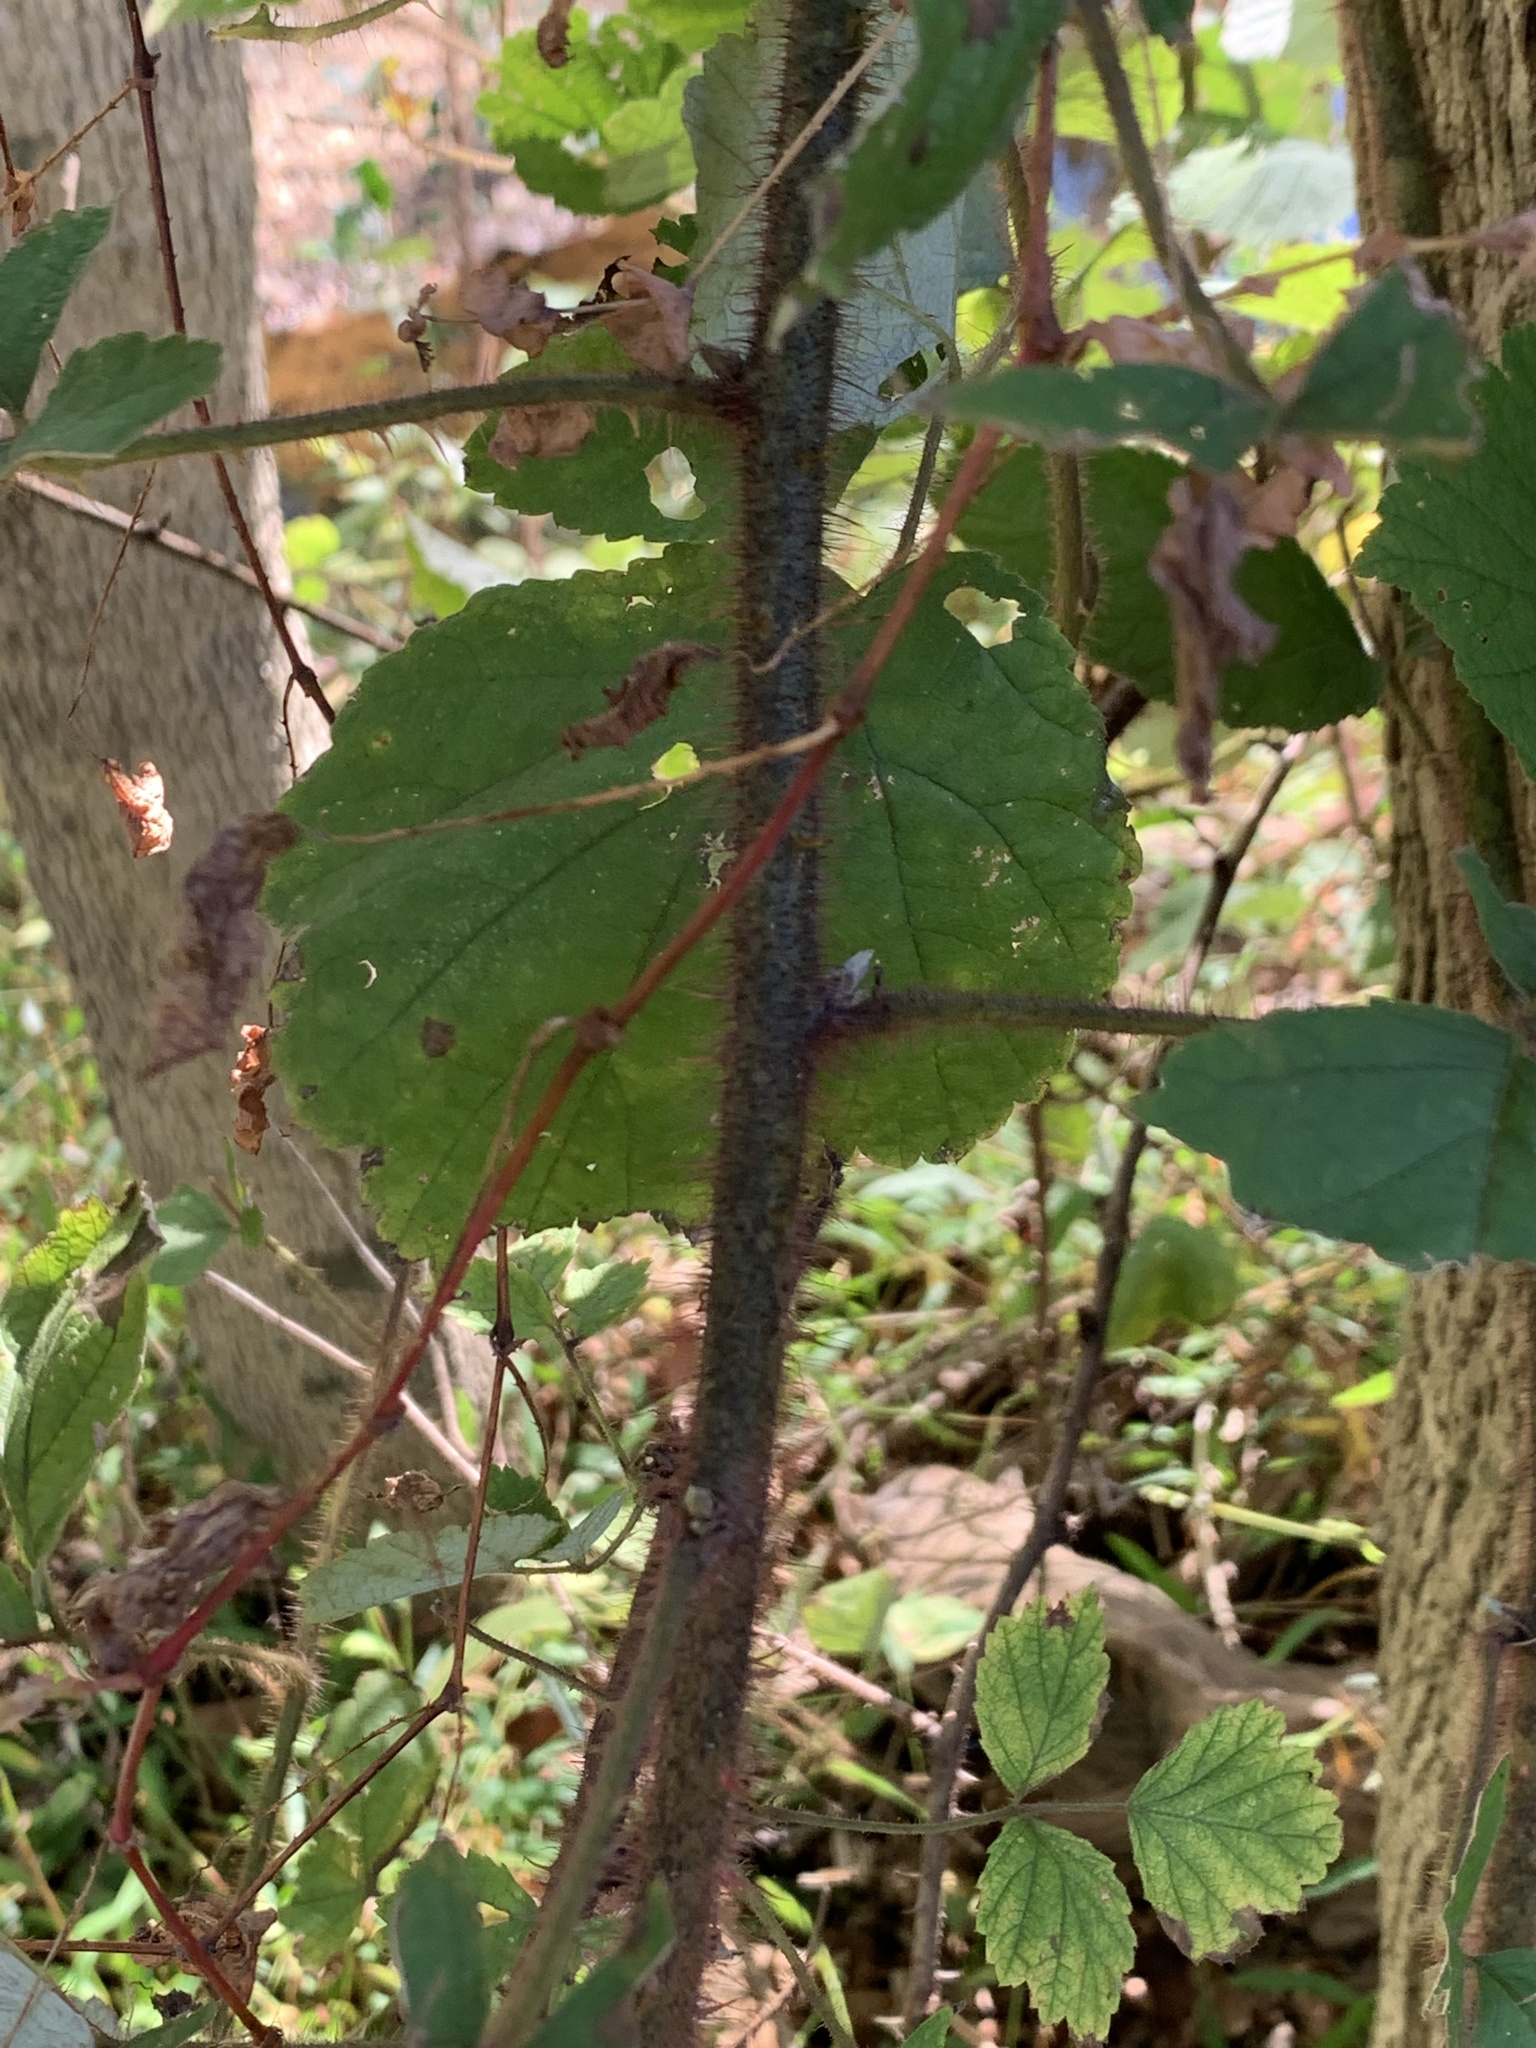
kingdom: Plantae
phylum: Tracheophyta
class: Magnoliopsida
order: Rosales
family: Rosaceae
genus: Rubus
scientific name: Rubus phoenicolasius
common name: Japanese wineberry
